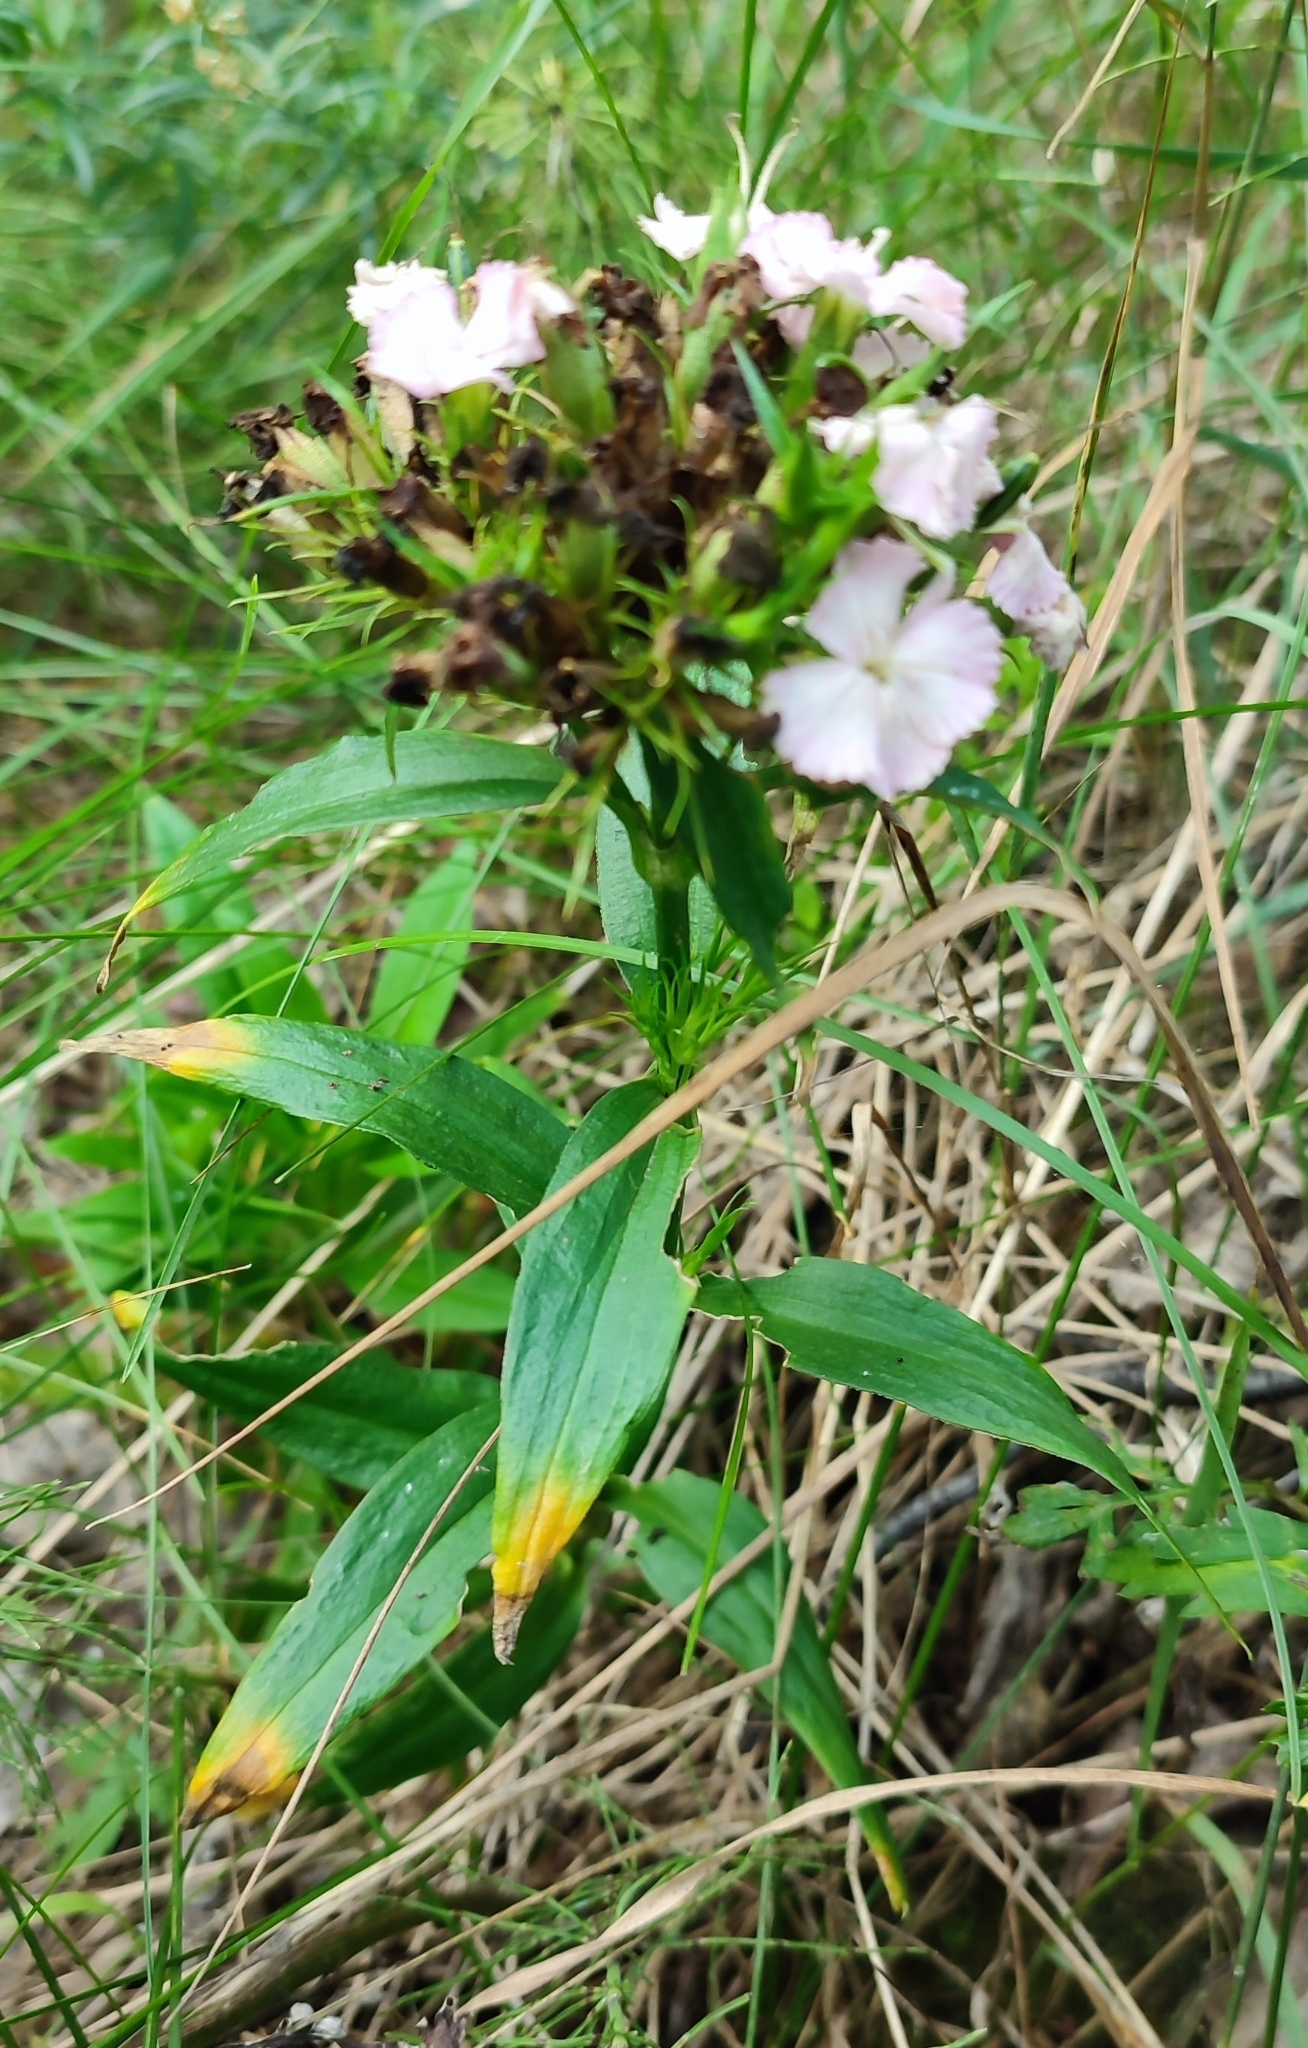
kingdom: Plantae
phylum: Tracheophyta
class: Magnoliopsida
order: Caryophyllales
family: Caryophyllaceae
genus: Dianthus
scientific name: Dianthus barbatus
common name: Sweet-william
